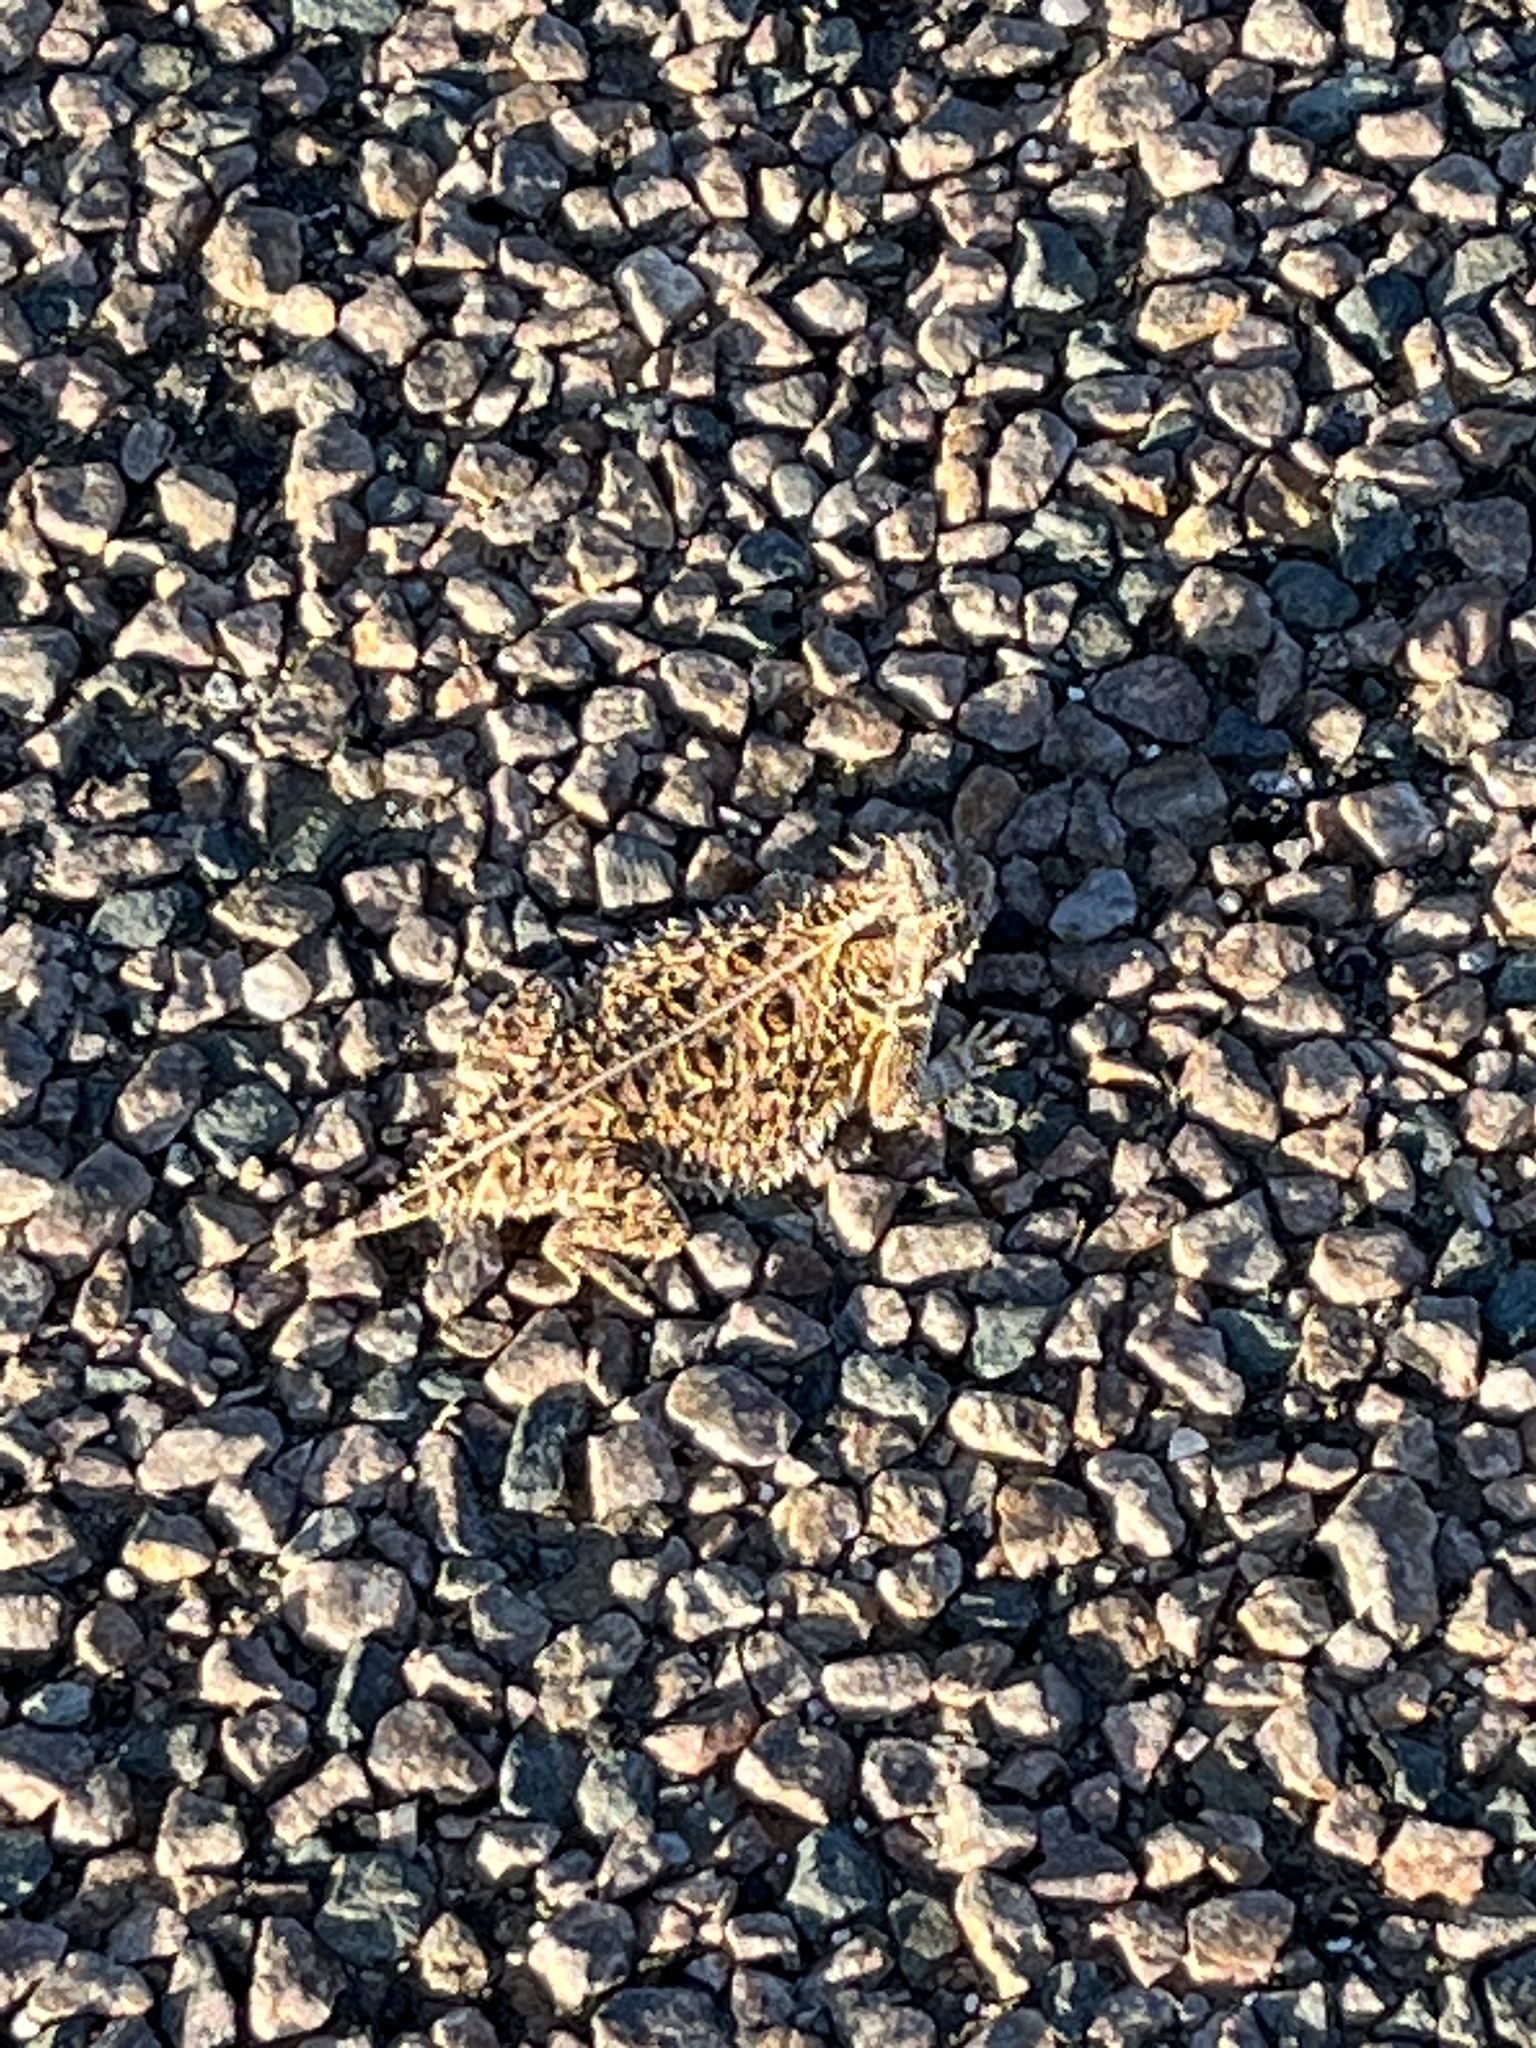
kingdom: Animalia
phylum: Chordata
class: Squamata
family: Phrynosomatidae
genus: Phrynosoma
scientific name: Phrynosoma cornutum
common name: Texas horned lizard
